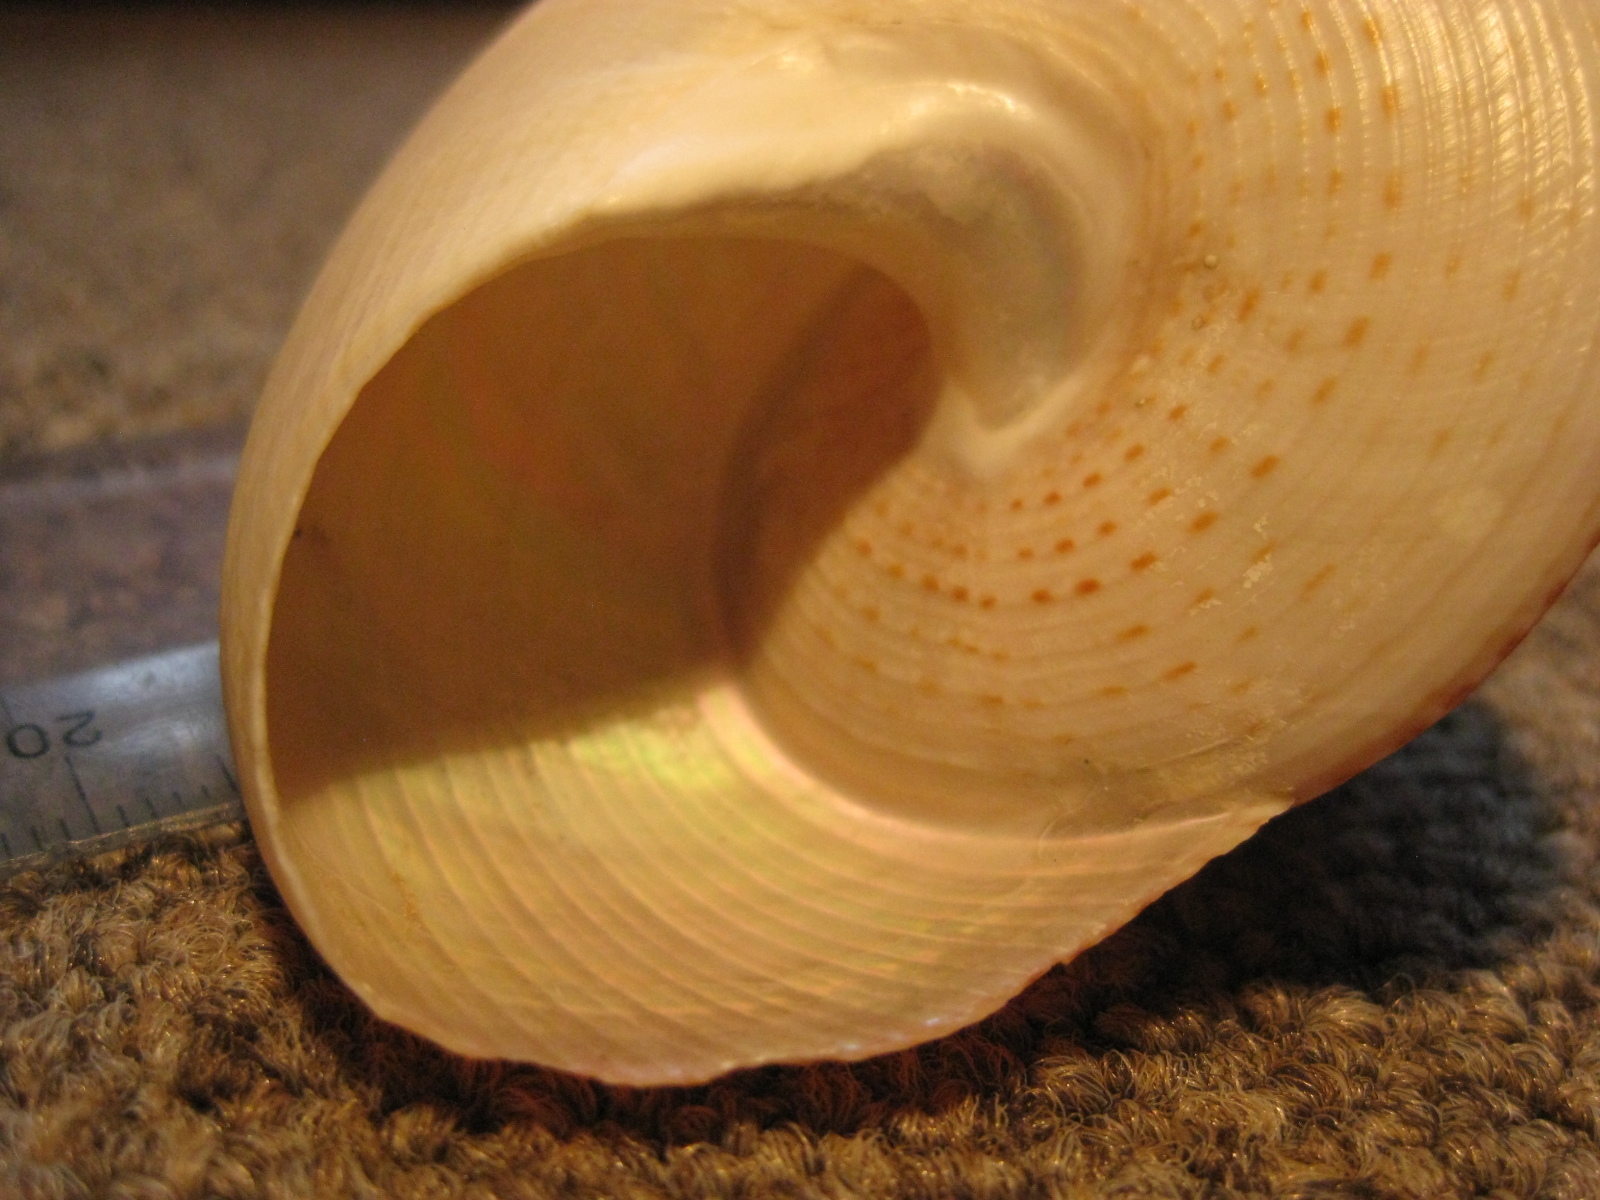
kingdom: Animalia
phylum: Mollusca
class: Gastropoda
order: Trochida
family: Calliostomatidae
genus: Maurea
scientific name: Maurea selecta
